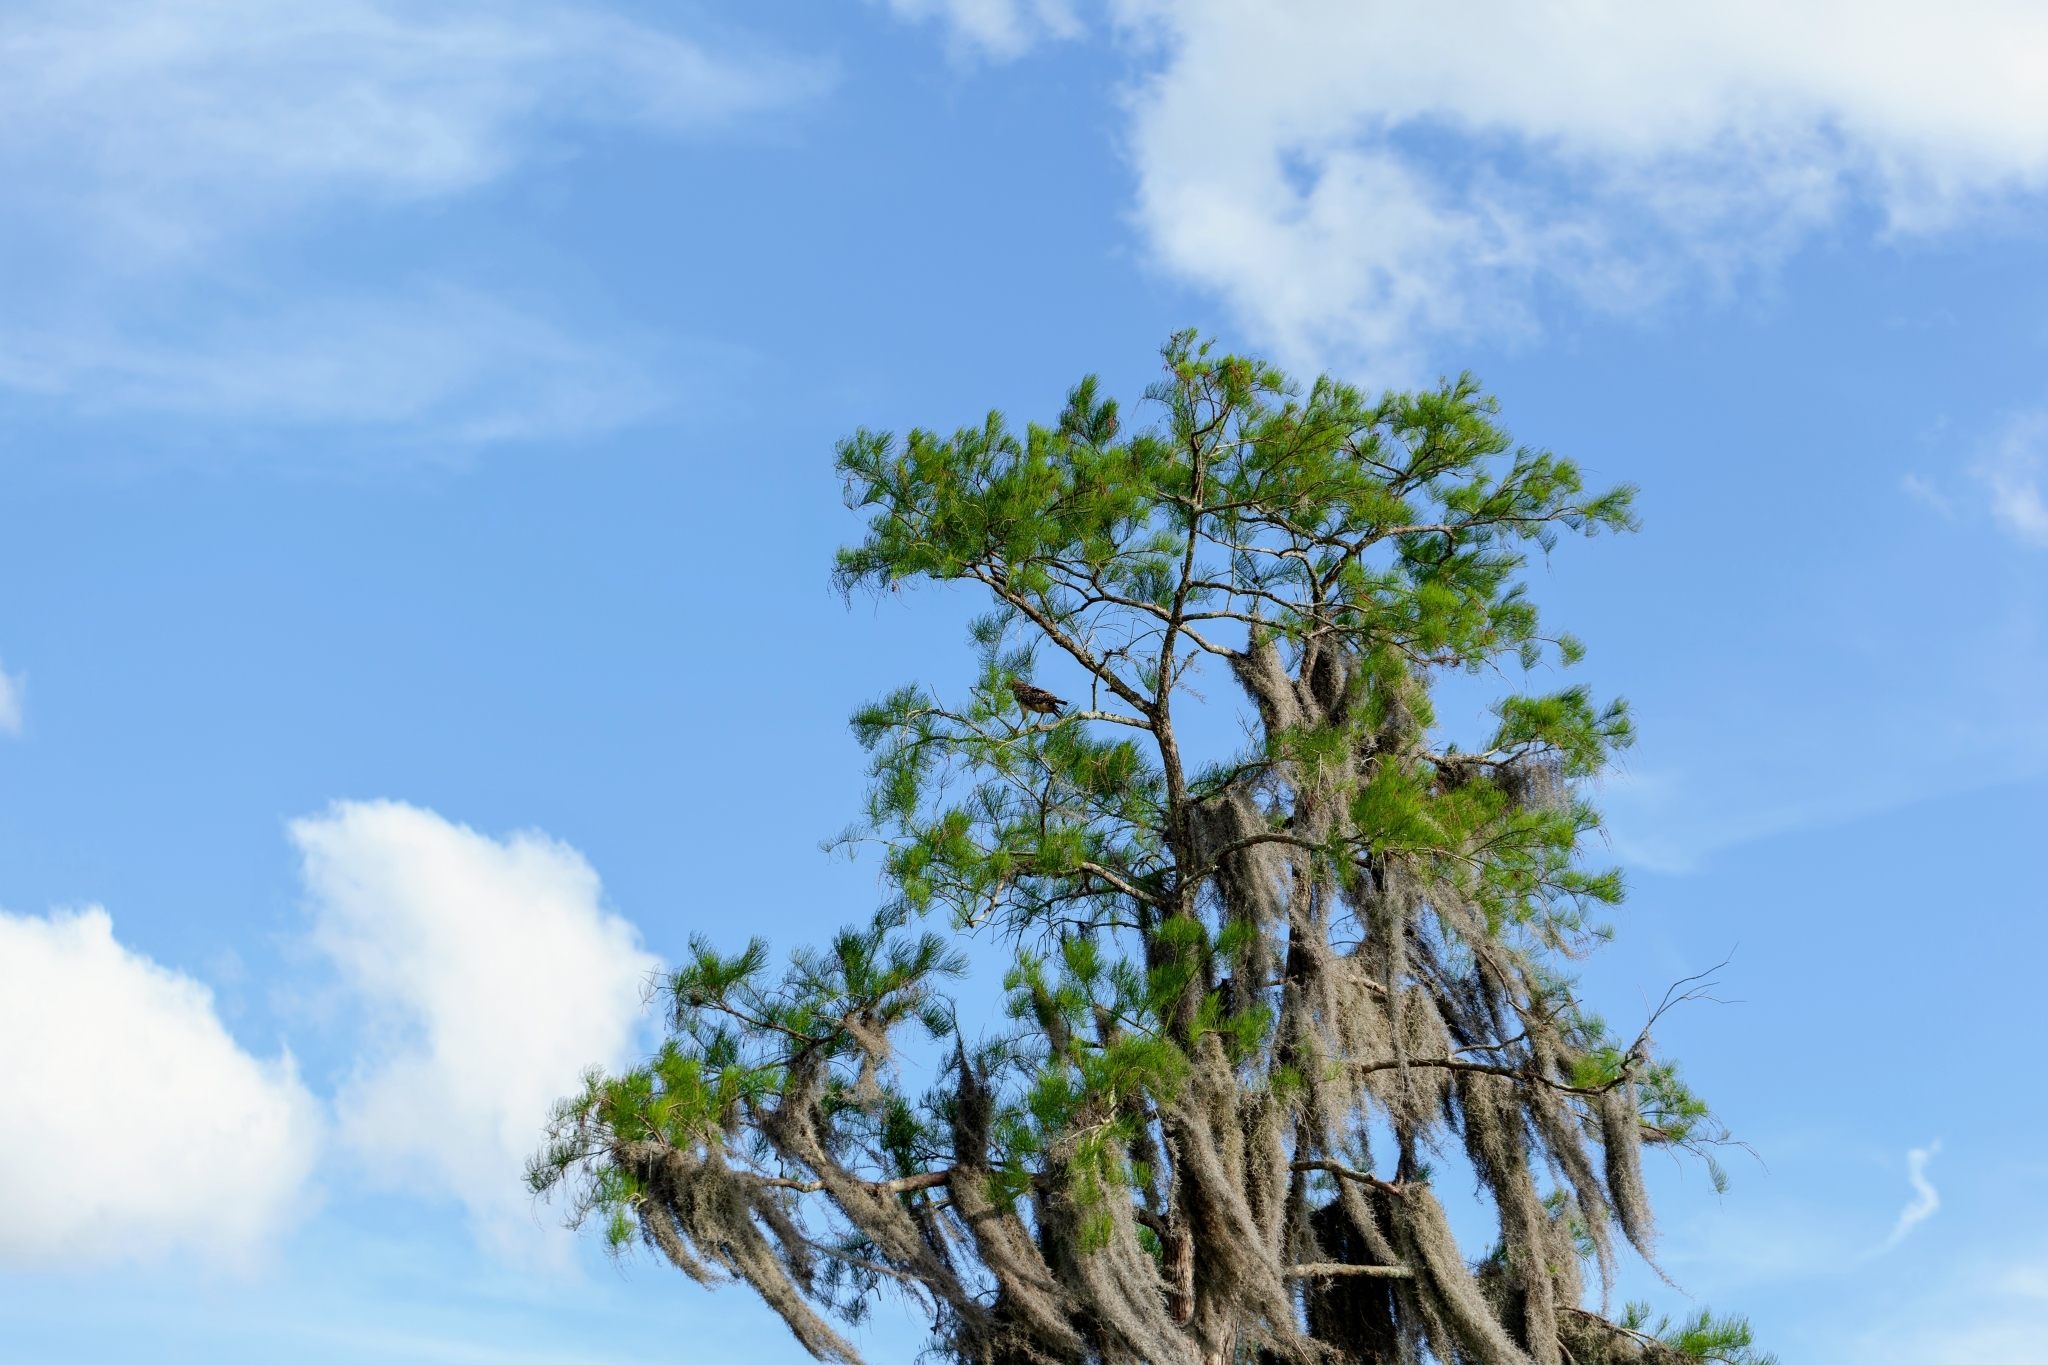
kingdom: Animalia
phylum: Chordata
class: Aves
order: Accipitriformes
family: Accipitridae
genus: Buteo
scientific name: Buteo lineatus
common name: Red-shouldered hawk
